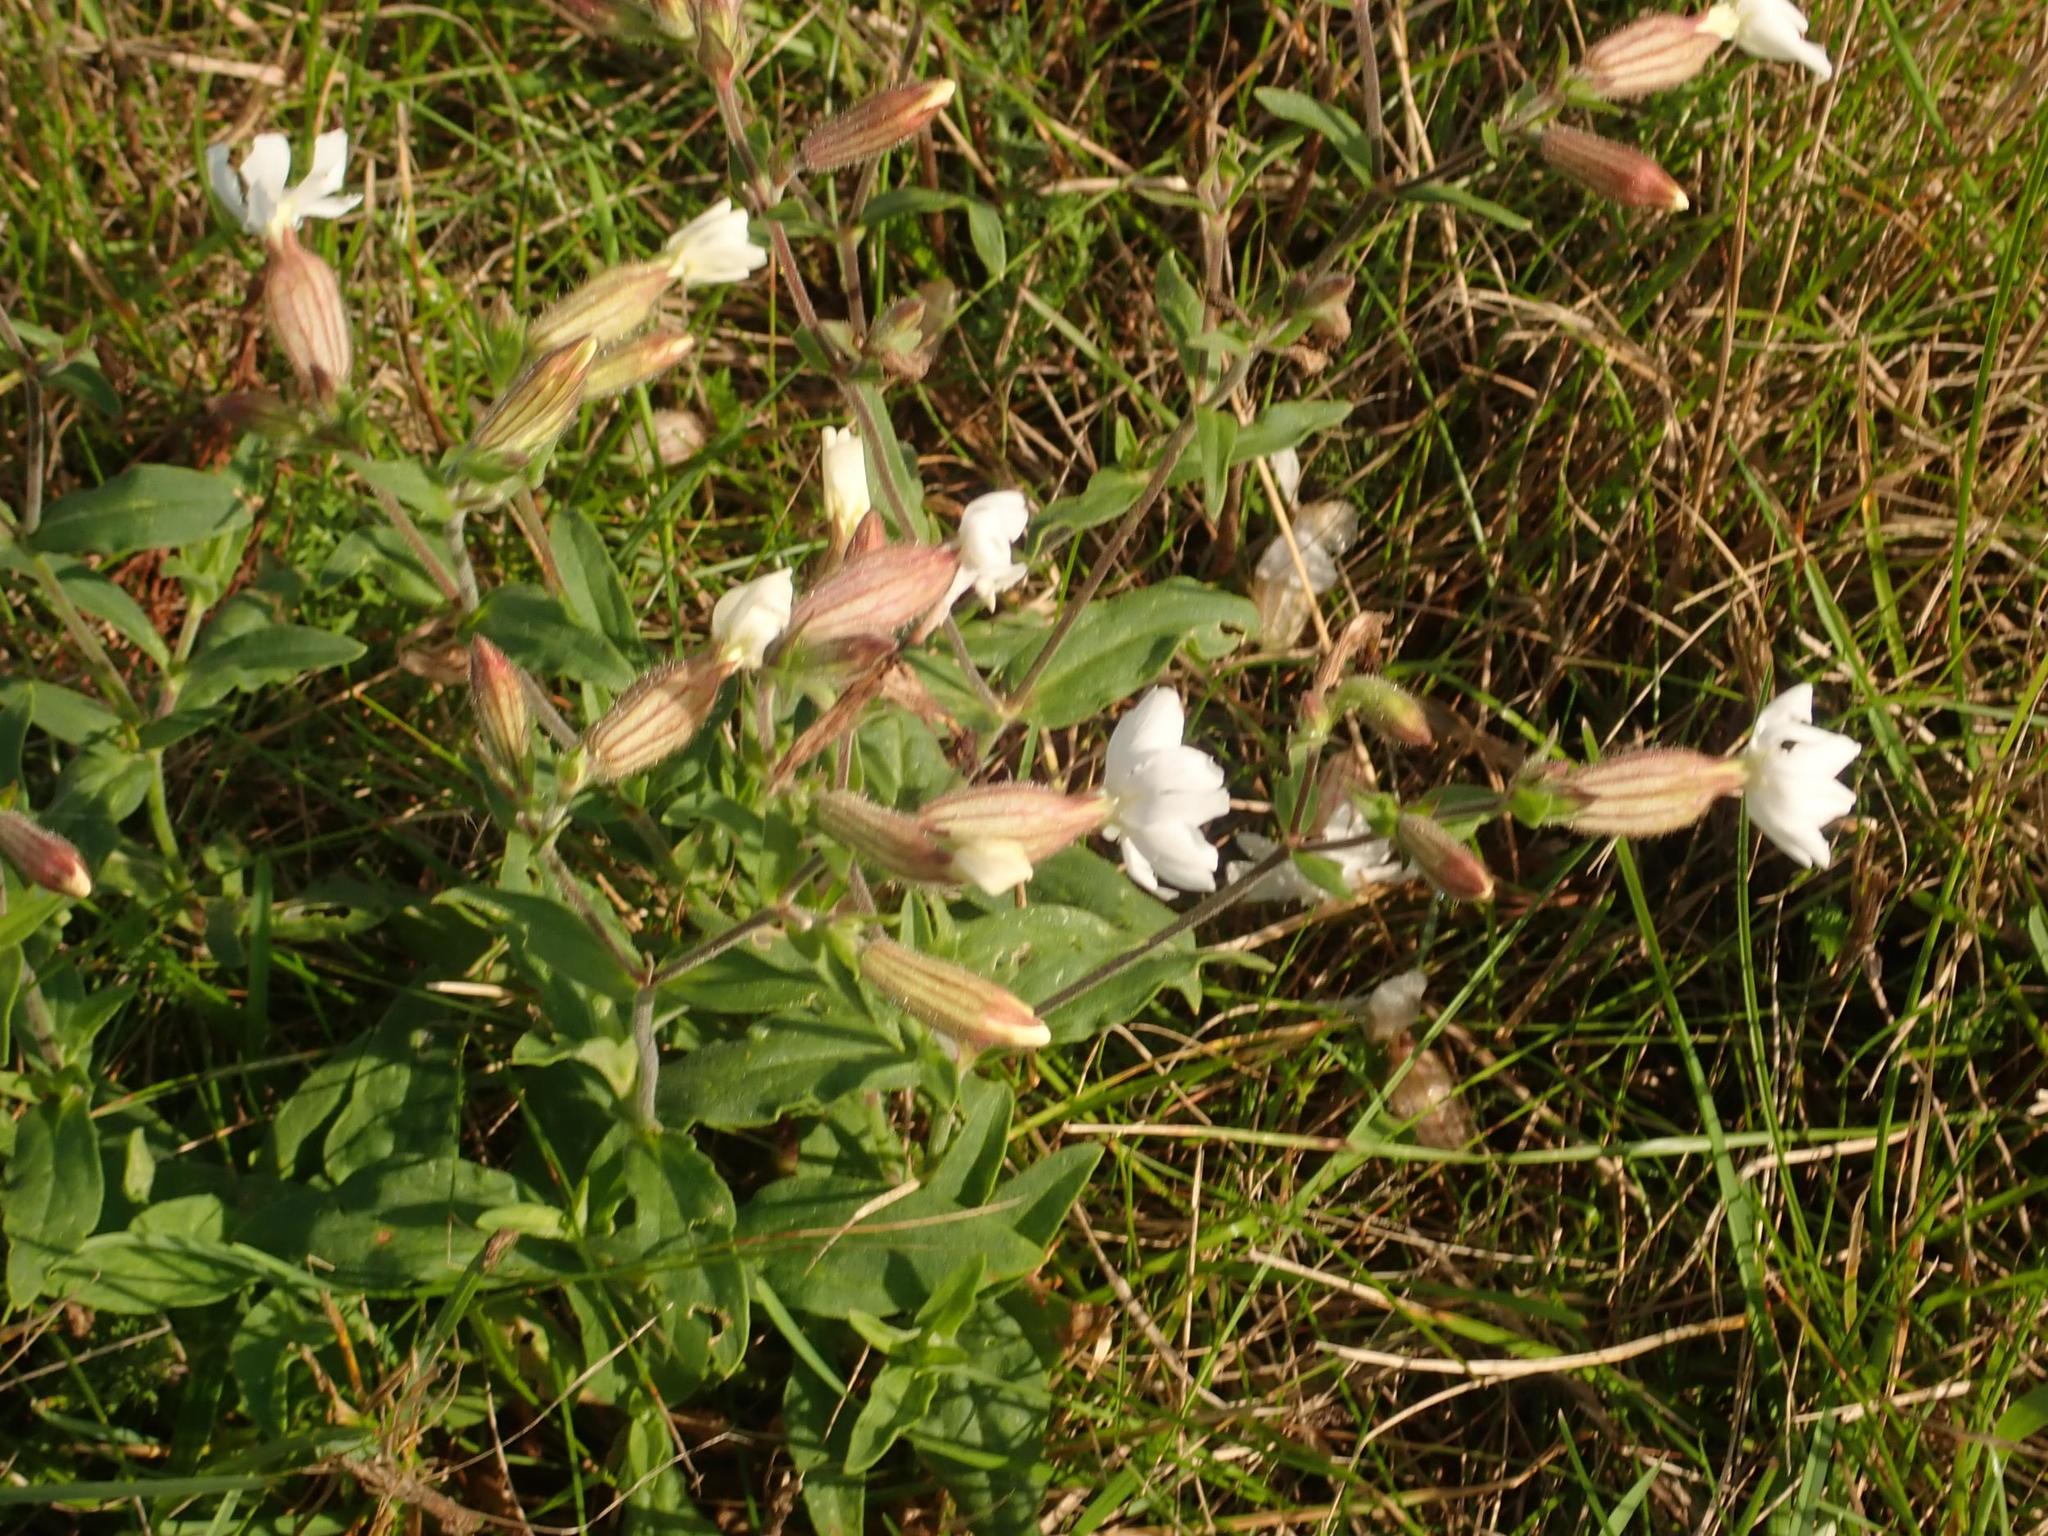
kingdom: Plantae
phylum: Tracheophyta
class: Magnoliopsida
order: Caryophyllales
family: Caryophyllaceae
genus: Silene
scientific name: Silene latifolia
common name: White campion
